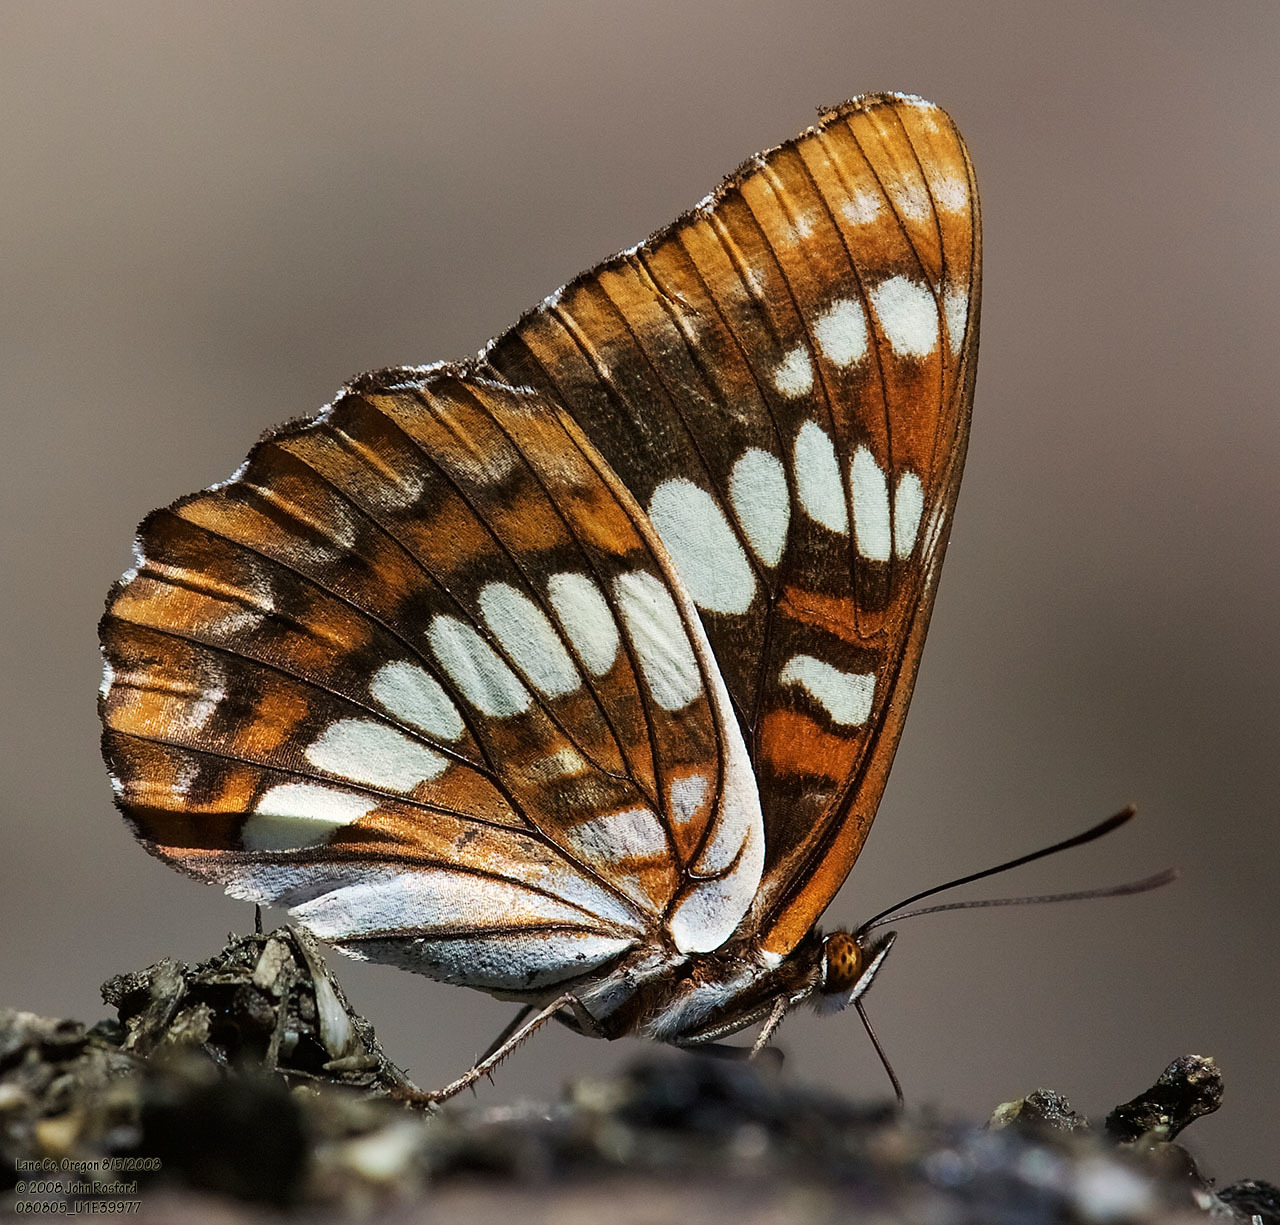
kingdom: Animalia
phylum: Arthropoda
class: Insecta
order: Lepidoptera
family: Nymphalidae
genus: Limenitis
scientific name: Limenitis lorquini
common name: Lorquin's admiral
